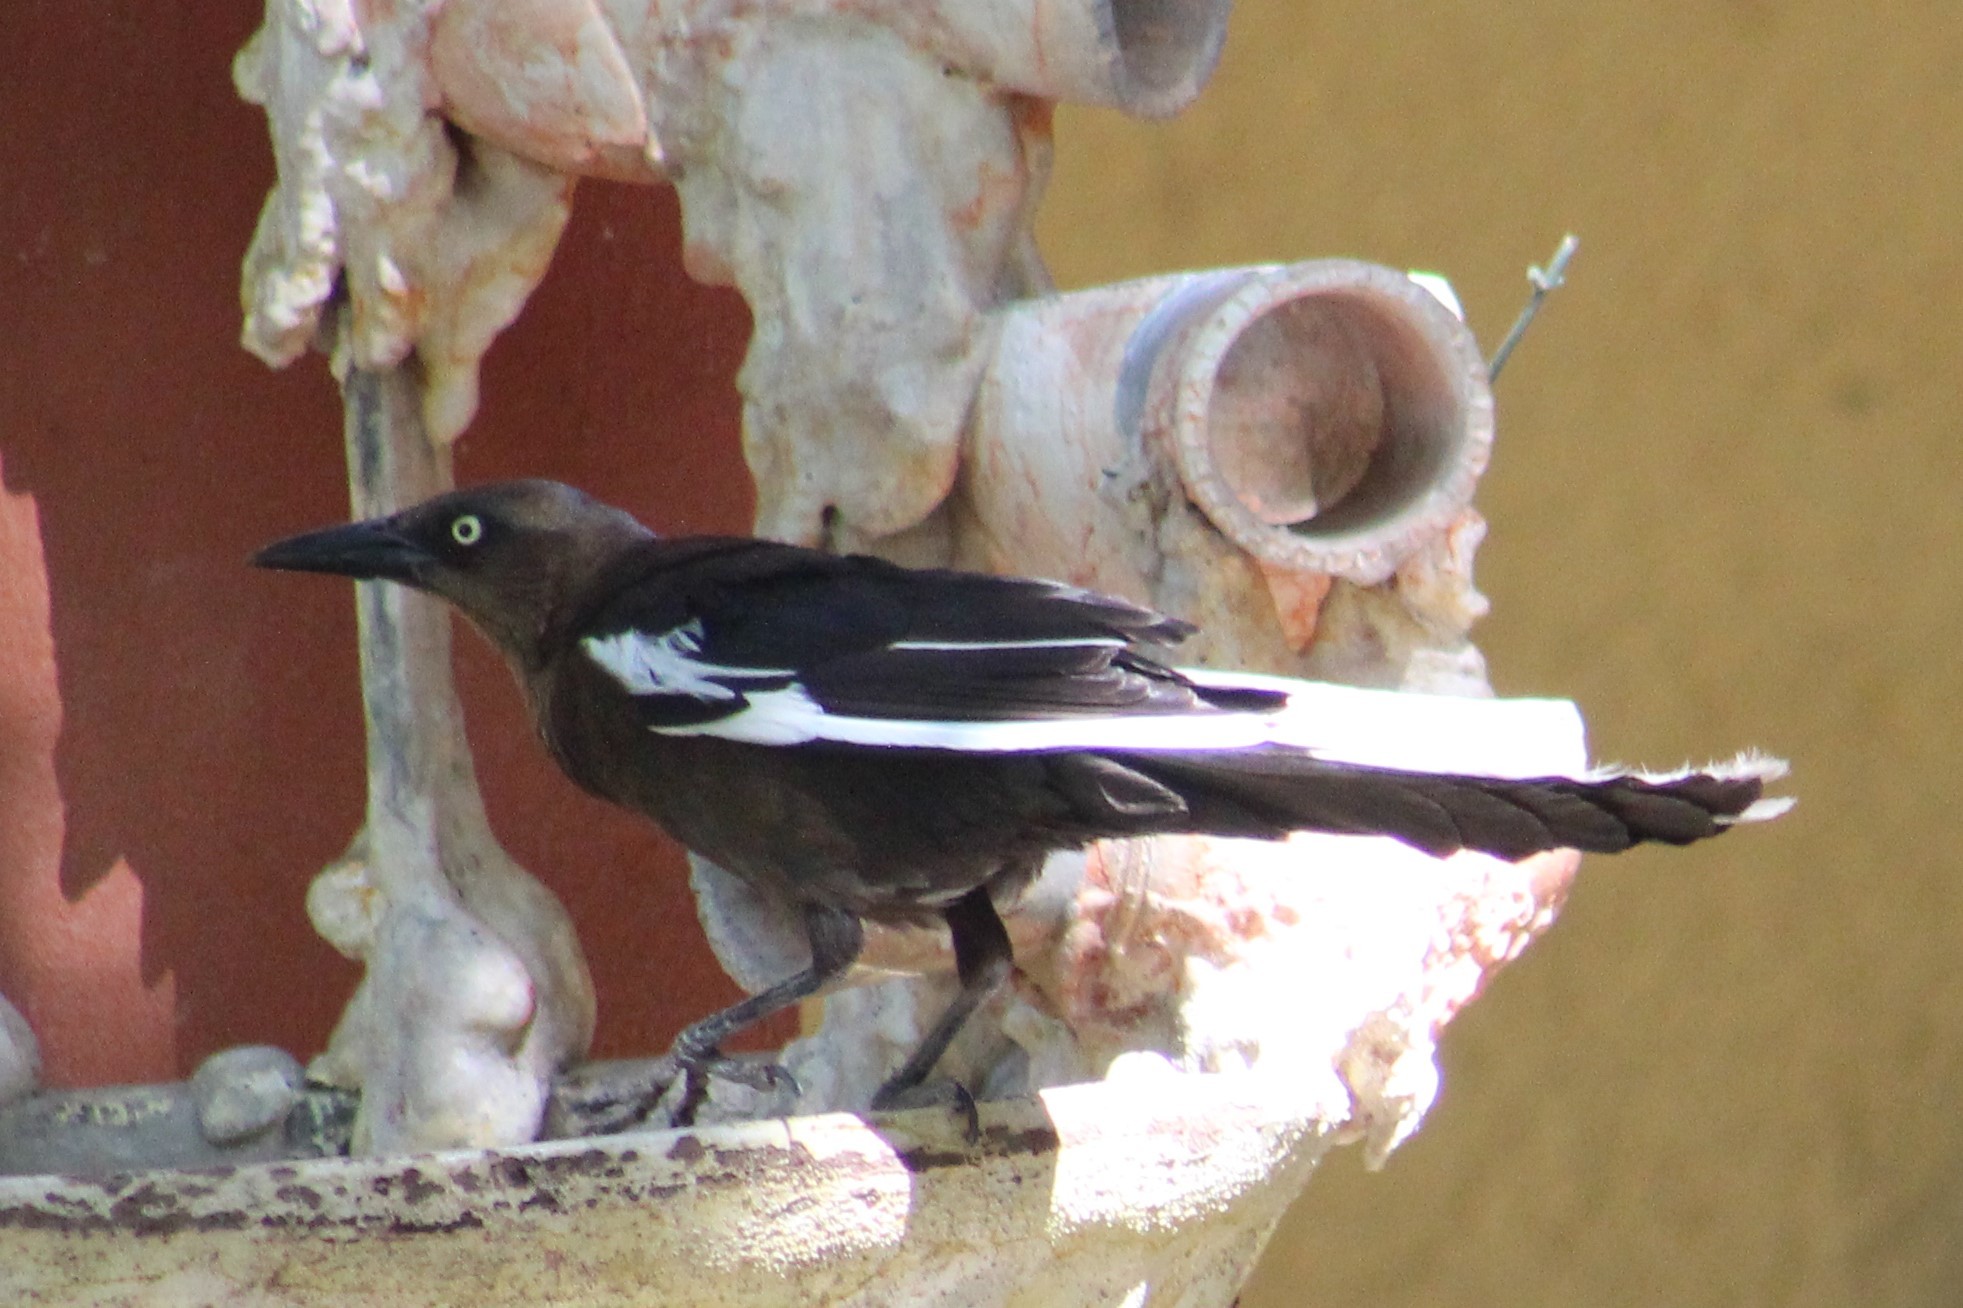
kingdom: Animalia
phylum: Chordata
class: Aves
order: Passeriformes
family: Icteridae
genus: Quiscalus
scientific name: Quiscalus mexicanus
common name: Great-tailed grackle
